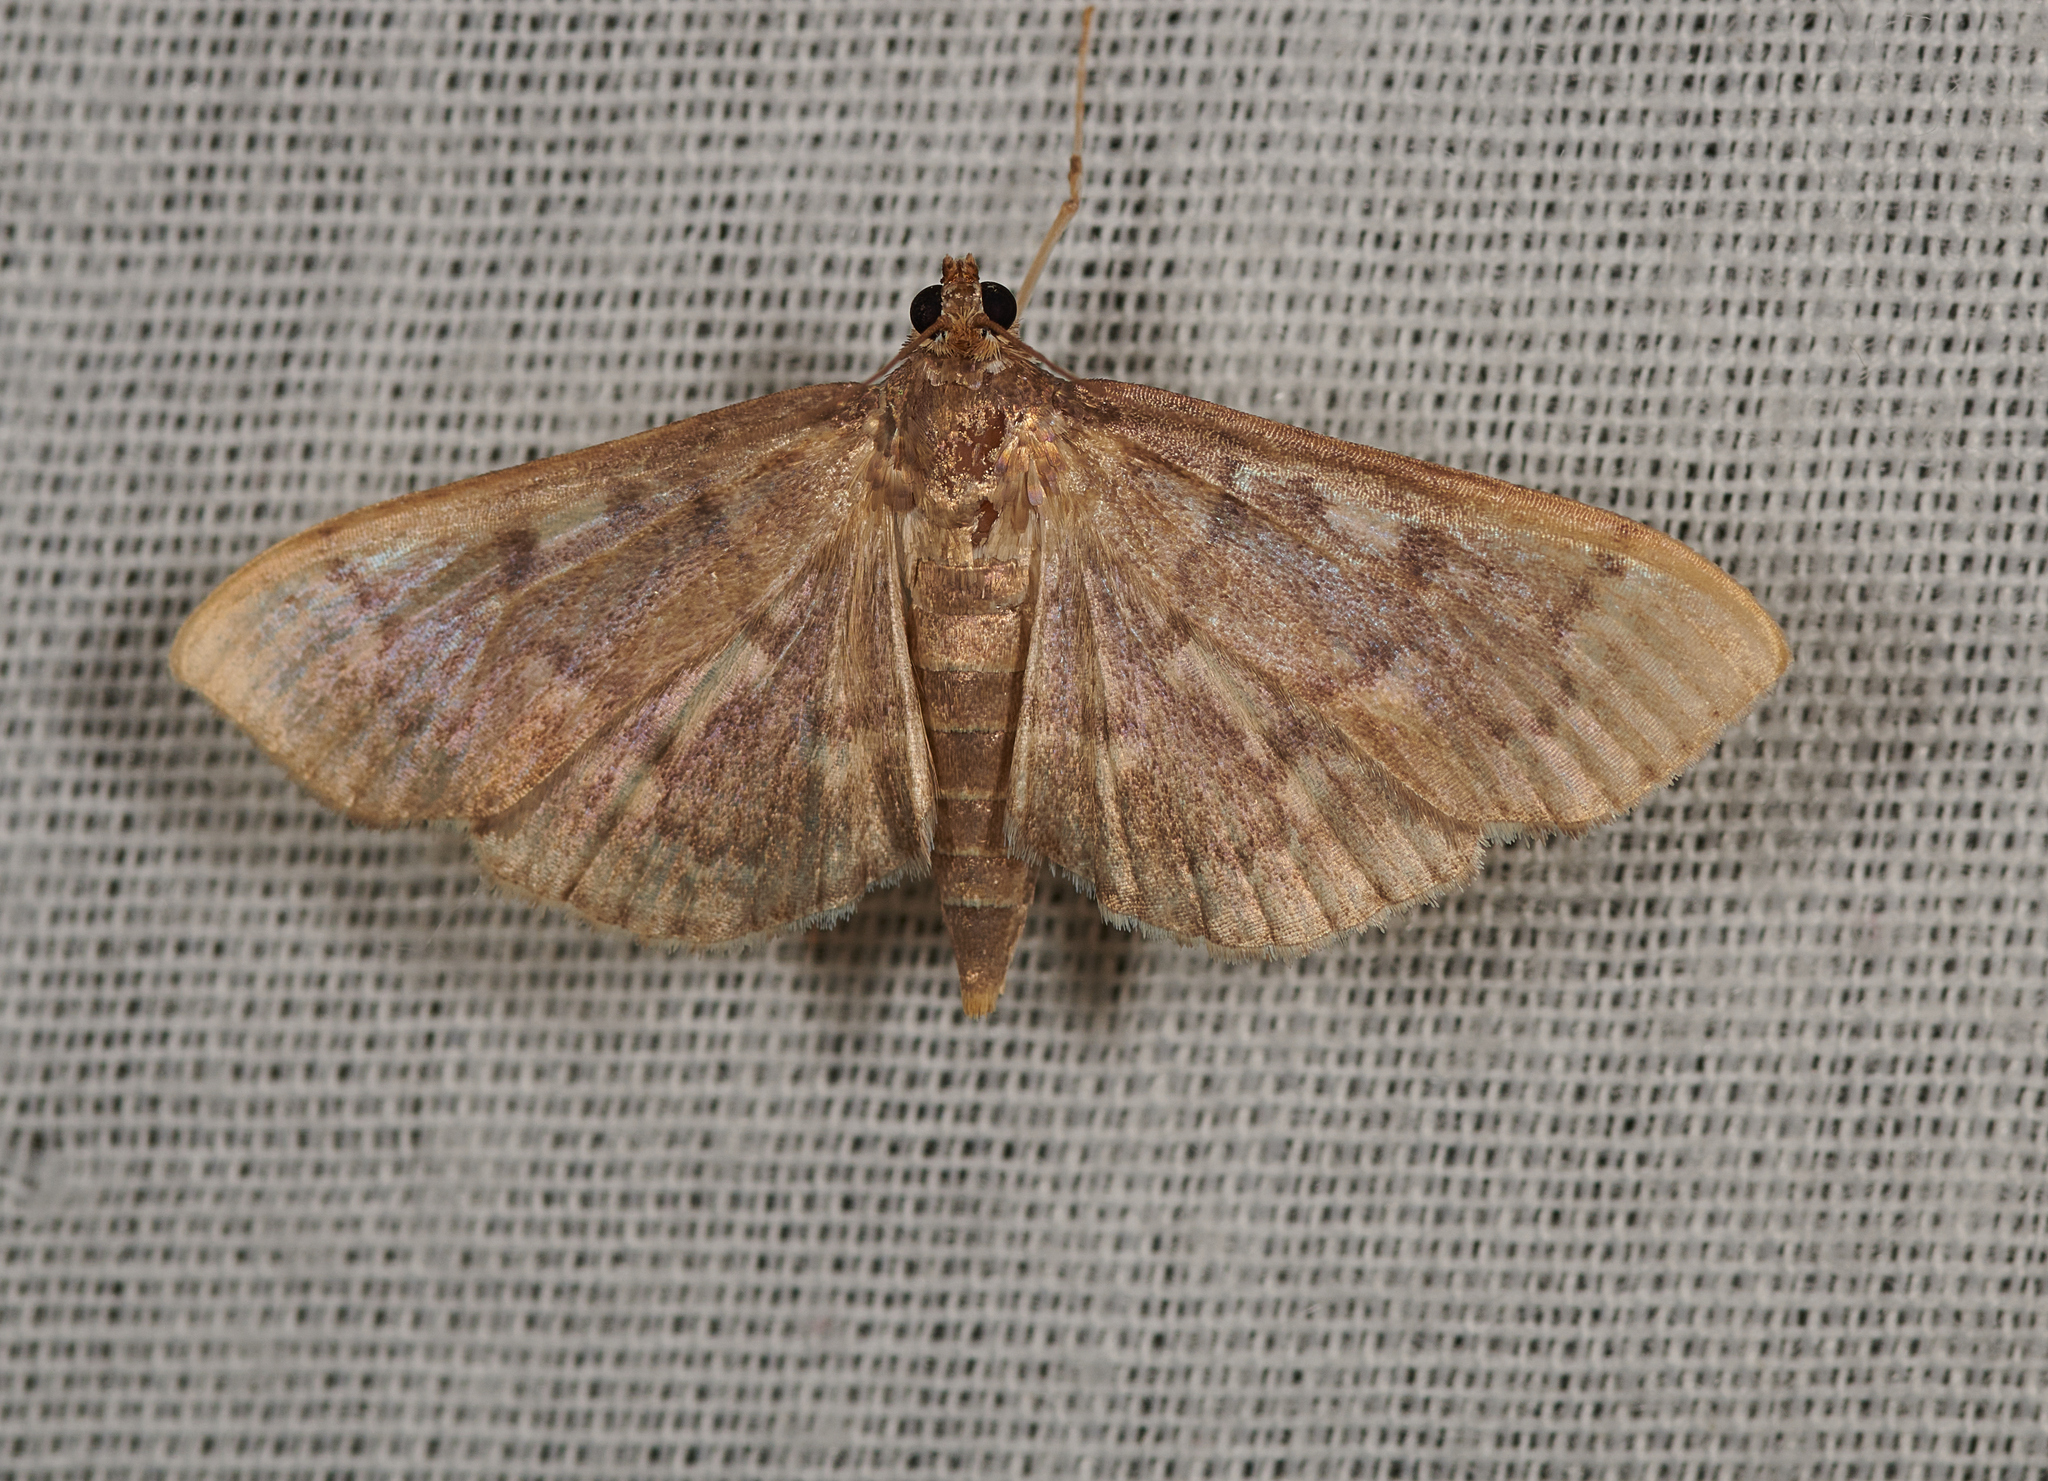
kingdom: Animalia
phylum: Arthropoda
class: Insecta
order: Lepidoptera
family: Crambidae
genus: Herpetogramma
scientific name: Herpetogramma aeglealis
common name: Serpentine webworm moth
